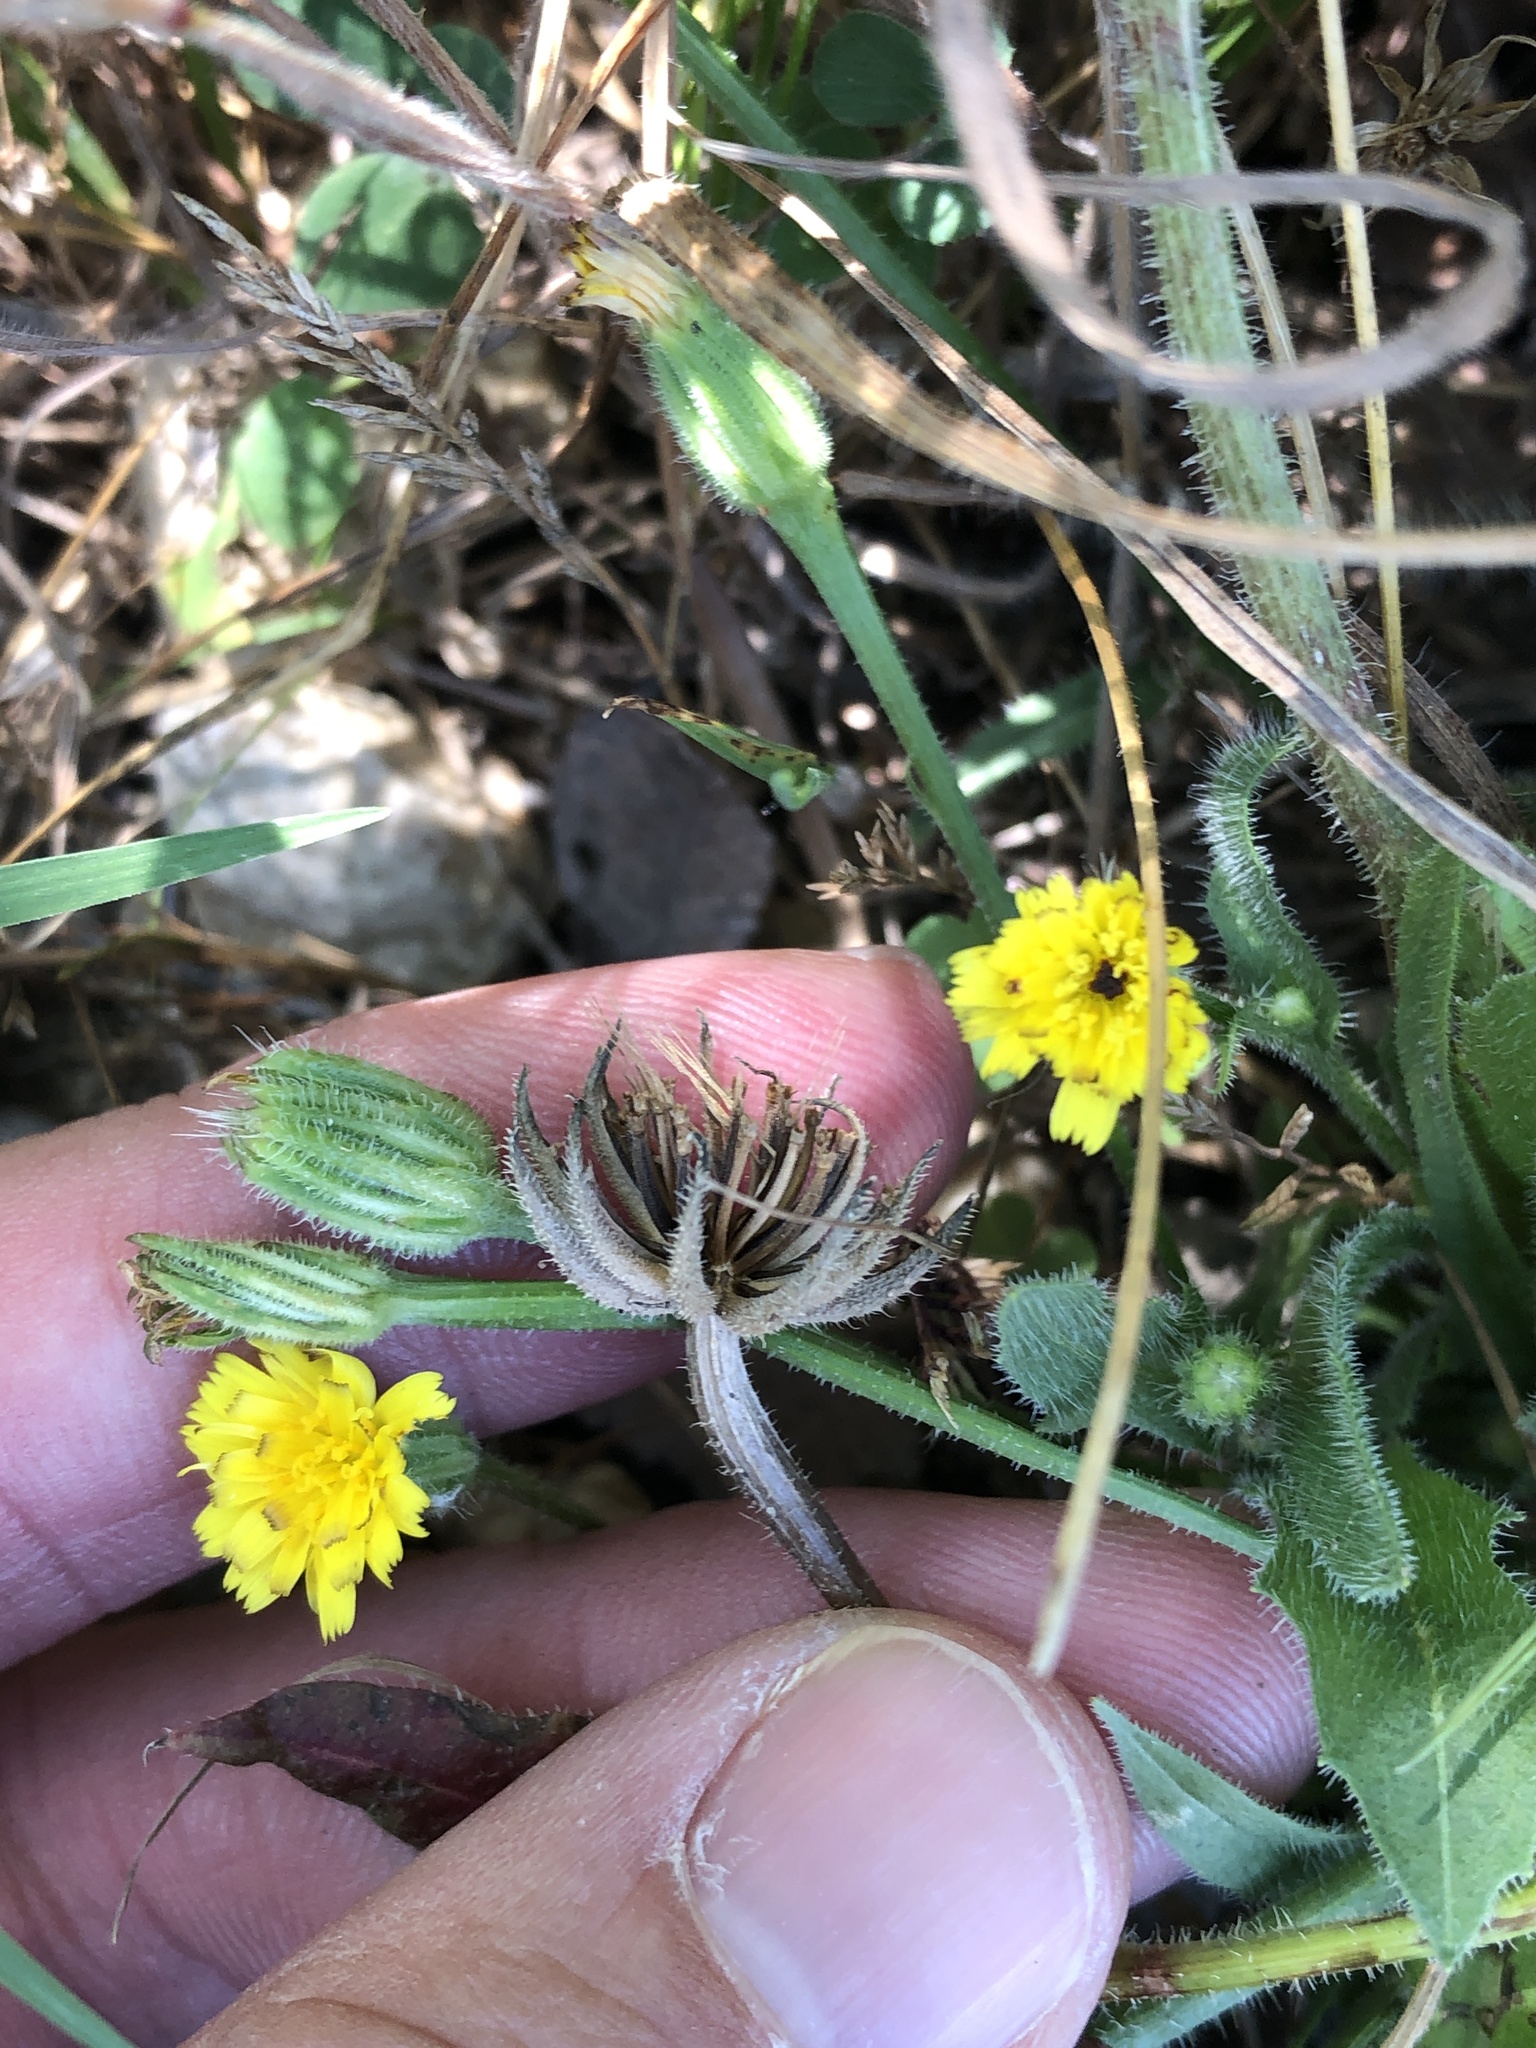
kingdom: Plantae
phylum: Tracheophyta
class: Magnoliopsida
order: Asterales
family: Asteraceae
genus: Hedypnois
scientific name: Hedypnois rhagadioloides
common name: Cretan weed
